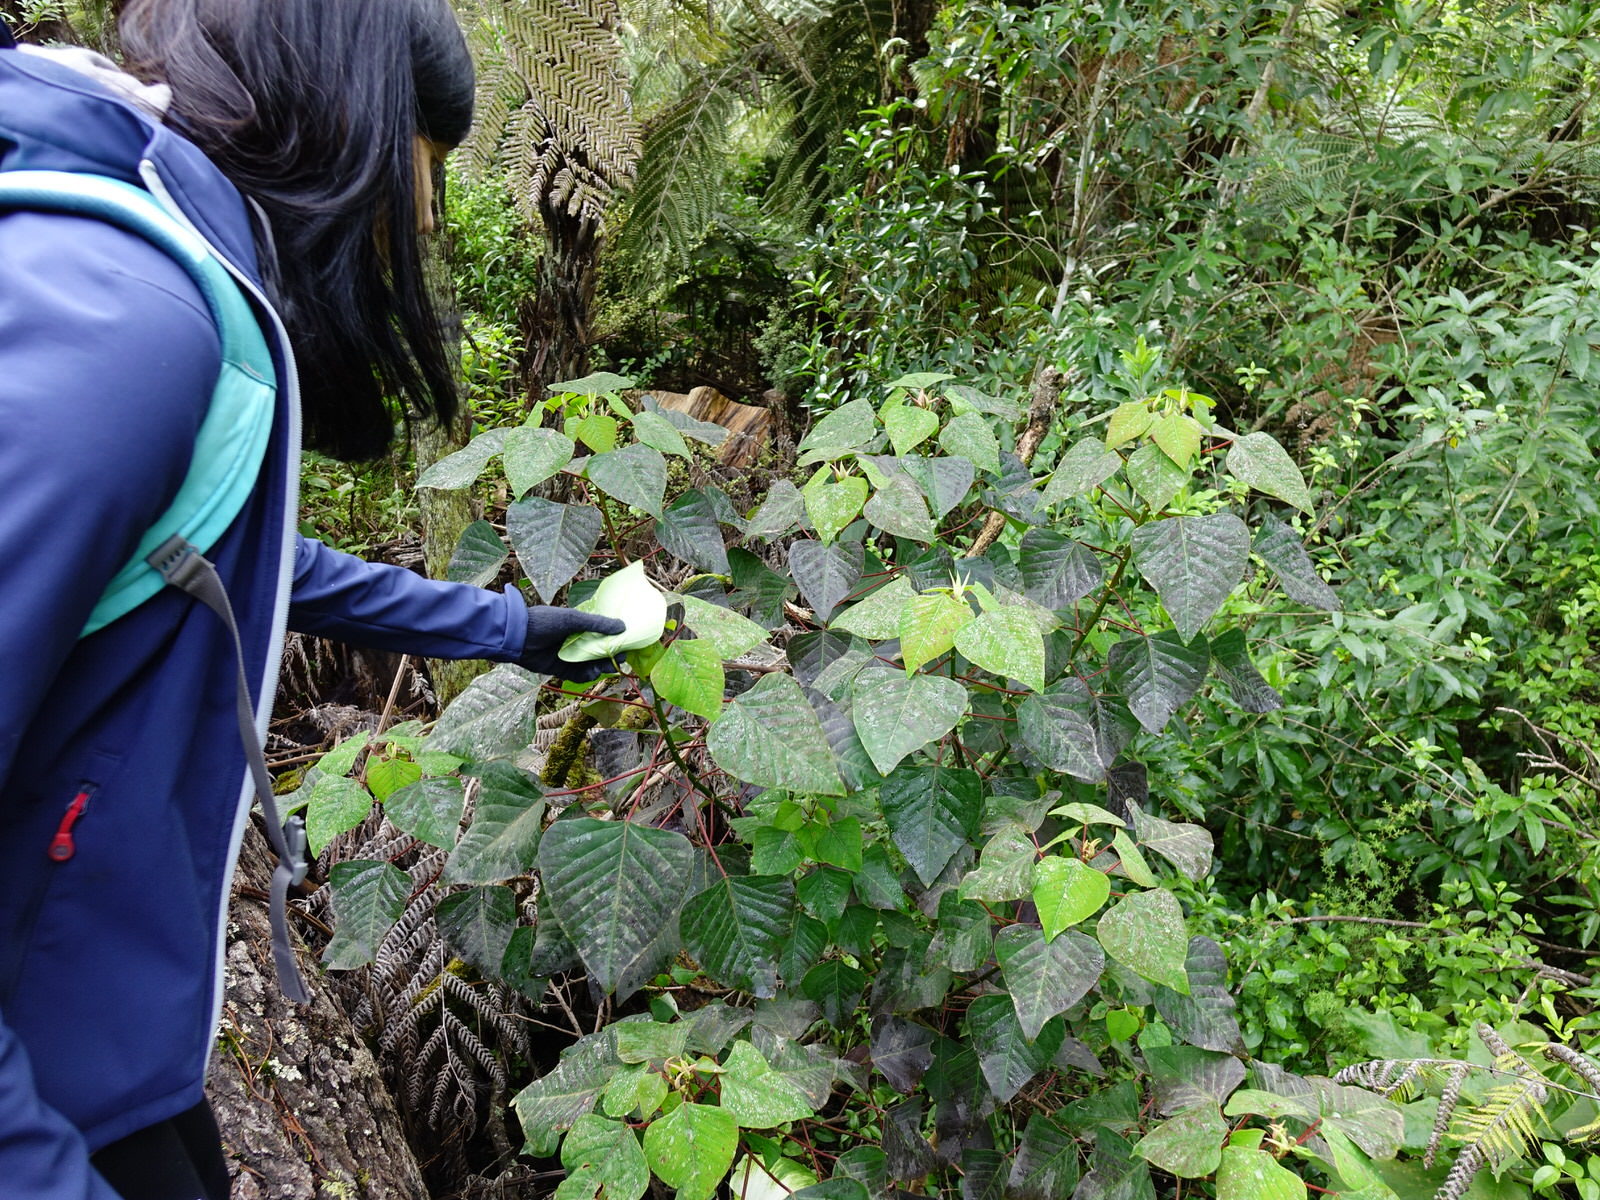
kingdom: Plantae
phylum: Tracheophyta
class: Magnoliopsida
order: Malpighiales
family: Euphorbiaceae
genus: Homalanthus
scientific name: Homalanthus populifolius
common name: Queensland poplar
